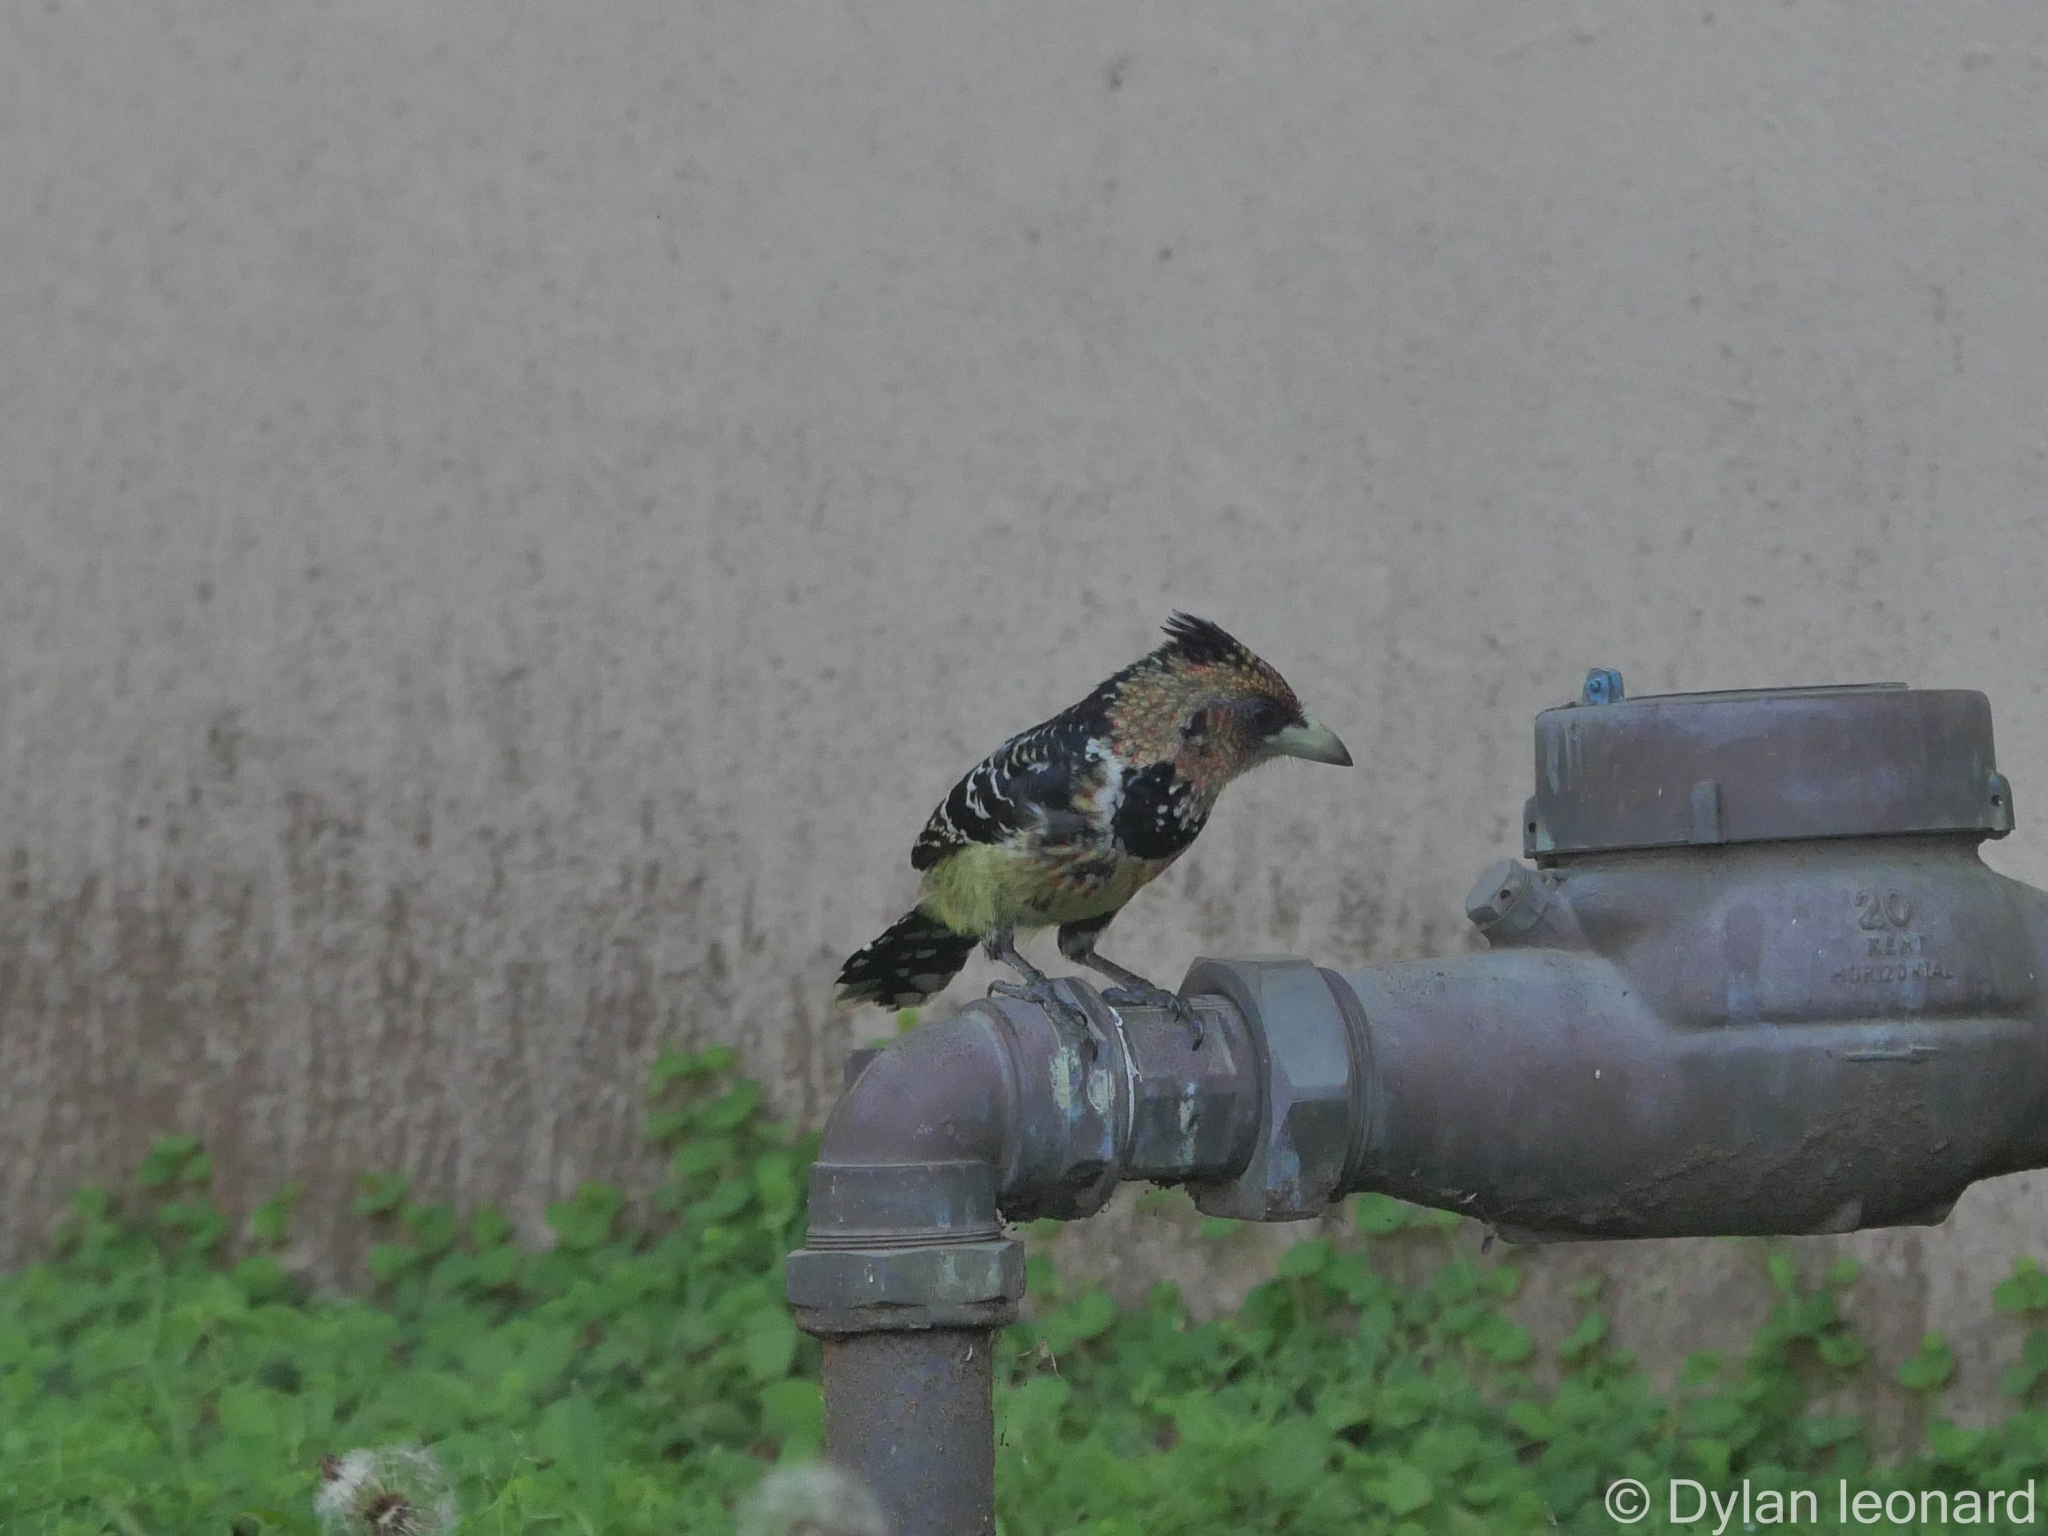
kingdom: Animalia
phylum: Chordata
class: Aves
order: Piciformes
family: Lybiidae
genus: Trachyphonus
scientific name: Trachyphonus vaillantii
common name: Crested barbet
